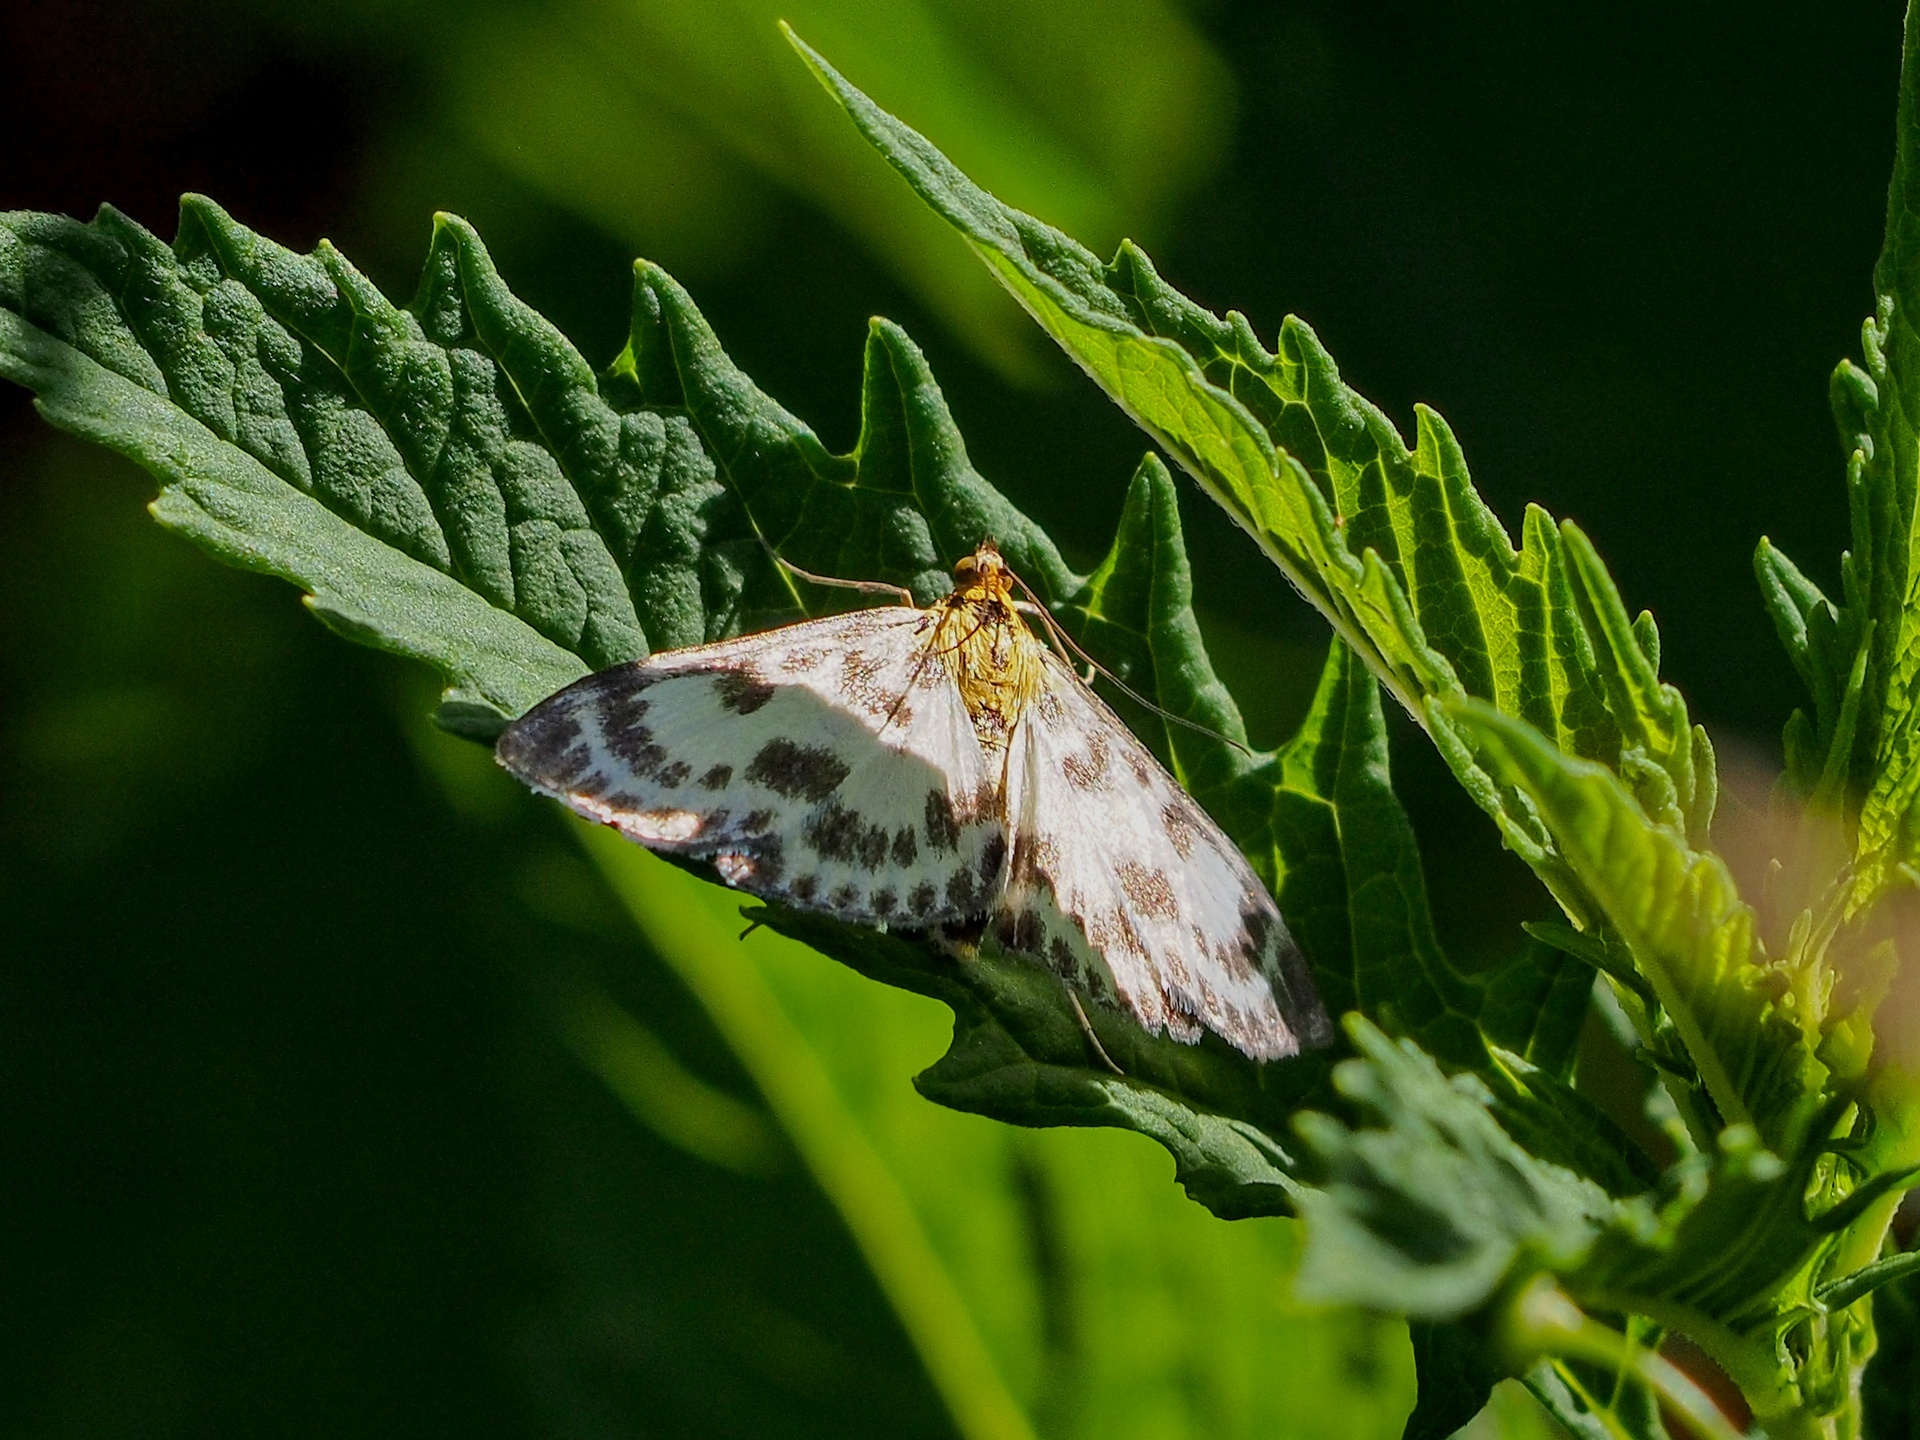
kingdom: Animalia
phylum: Arthropoda
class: Insecta
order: Lepidoptera
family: Crambidae
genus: Anania
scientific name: Anania hortulata
